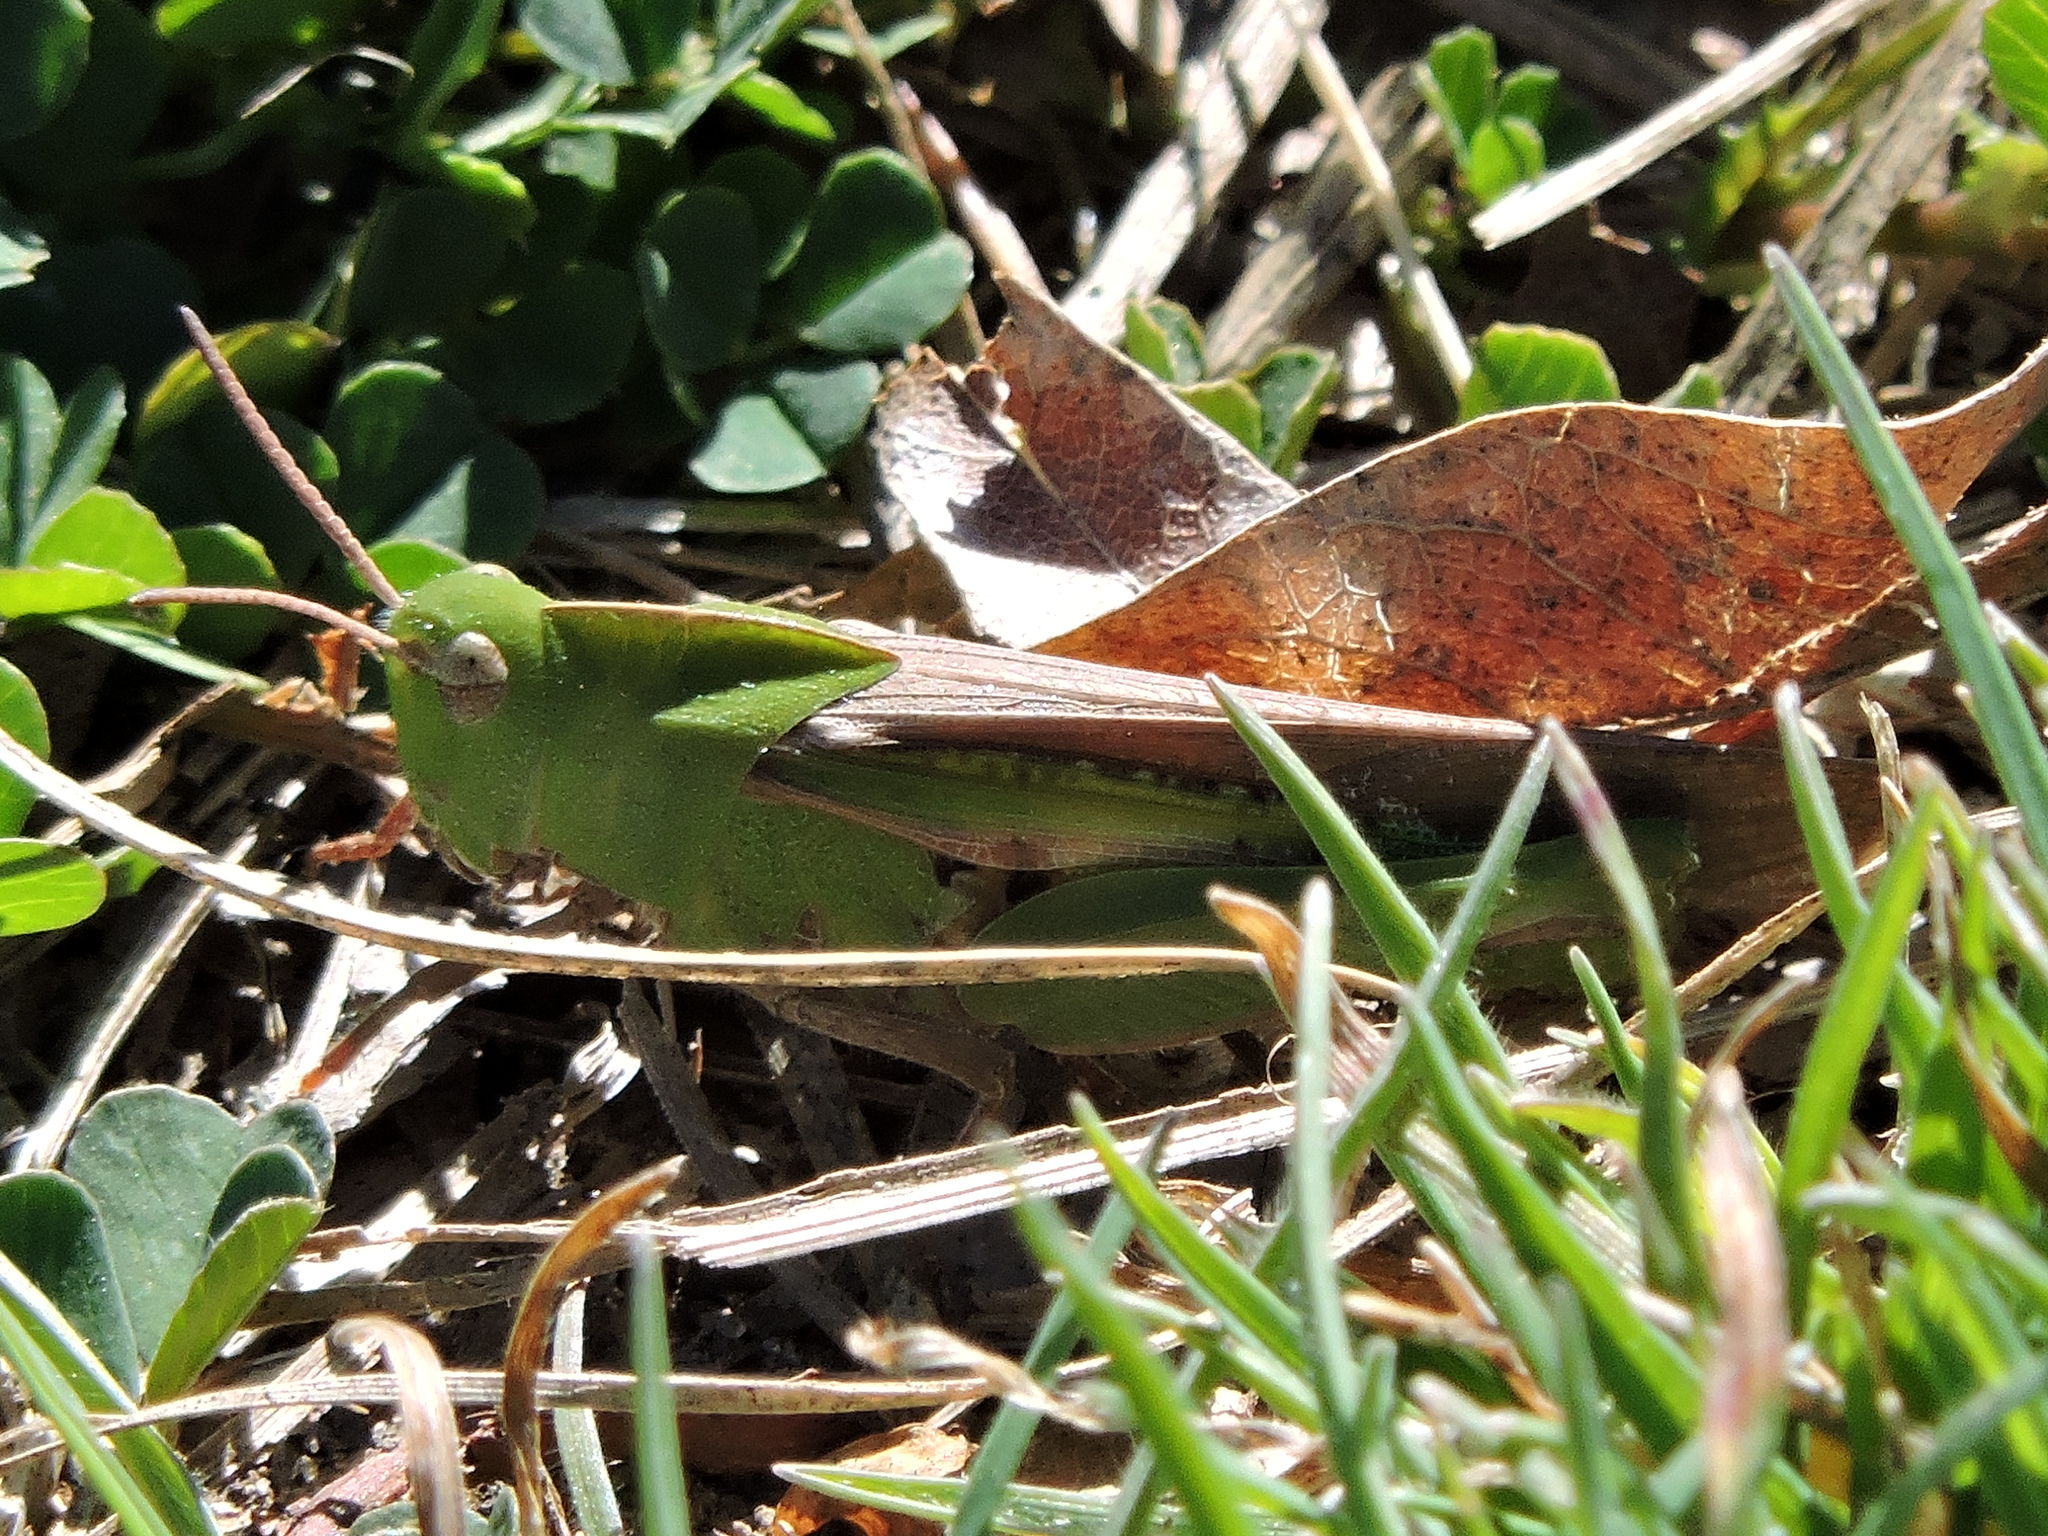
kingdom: Animalia
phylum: Arthropoda
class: Insecta
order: Orthoptera
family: Acrididae
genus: Chortophaga
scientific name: Chortophaga viridifasciata
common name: Green-striped grasshopper
